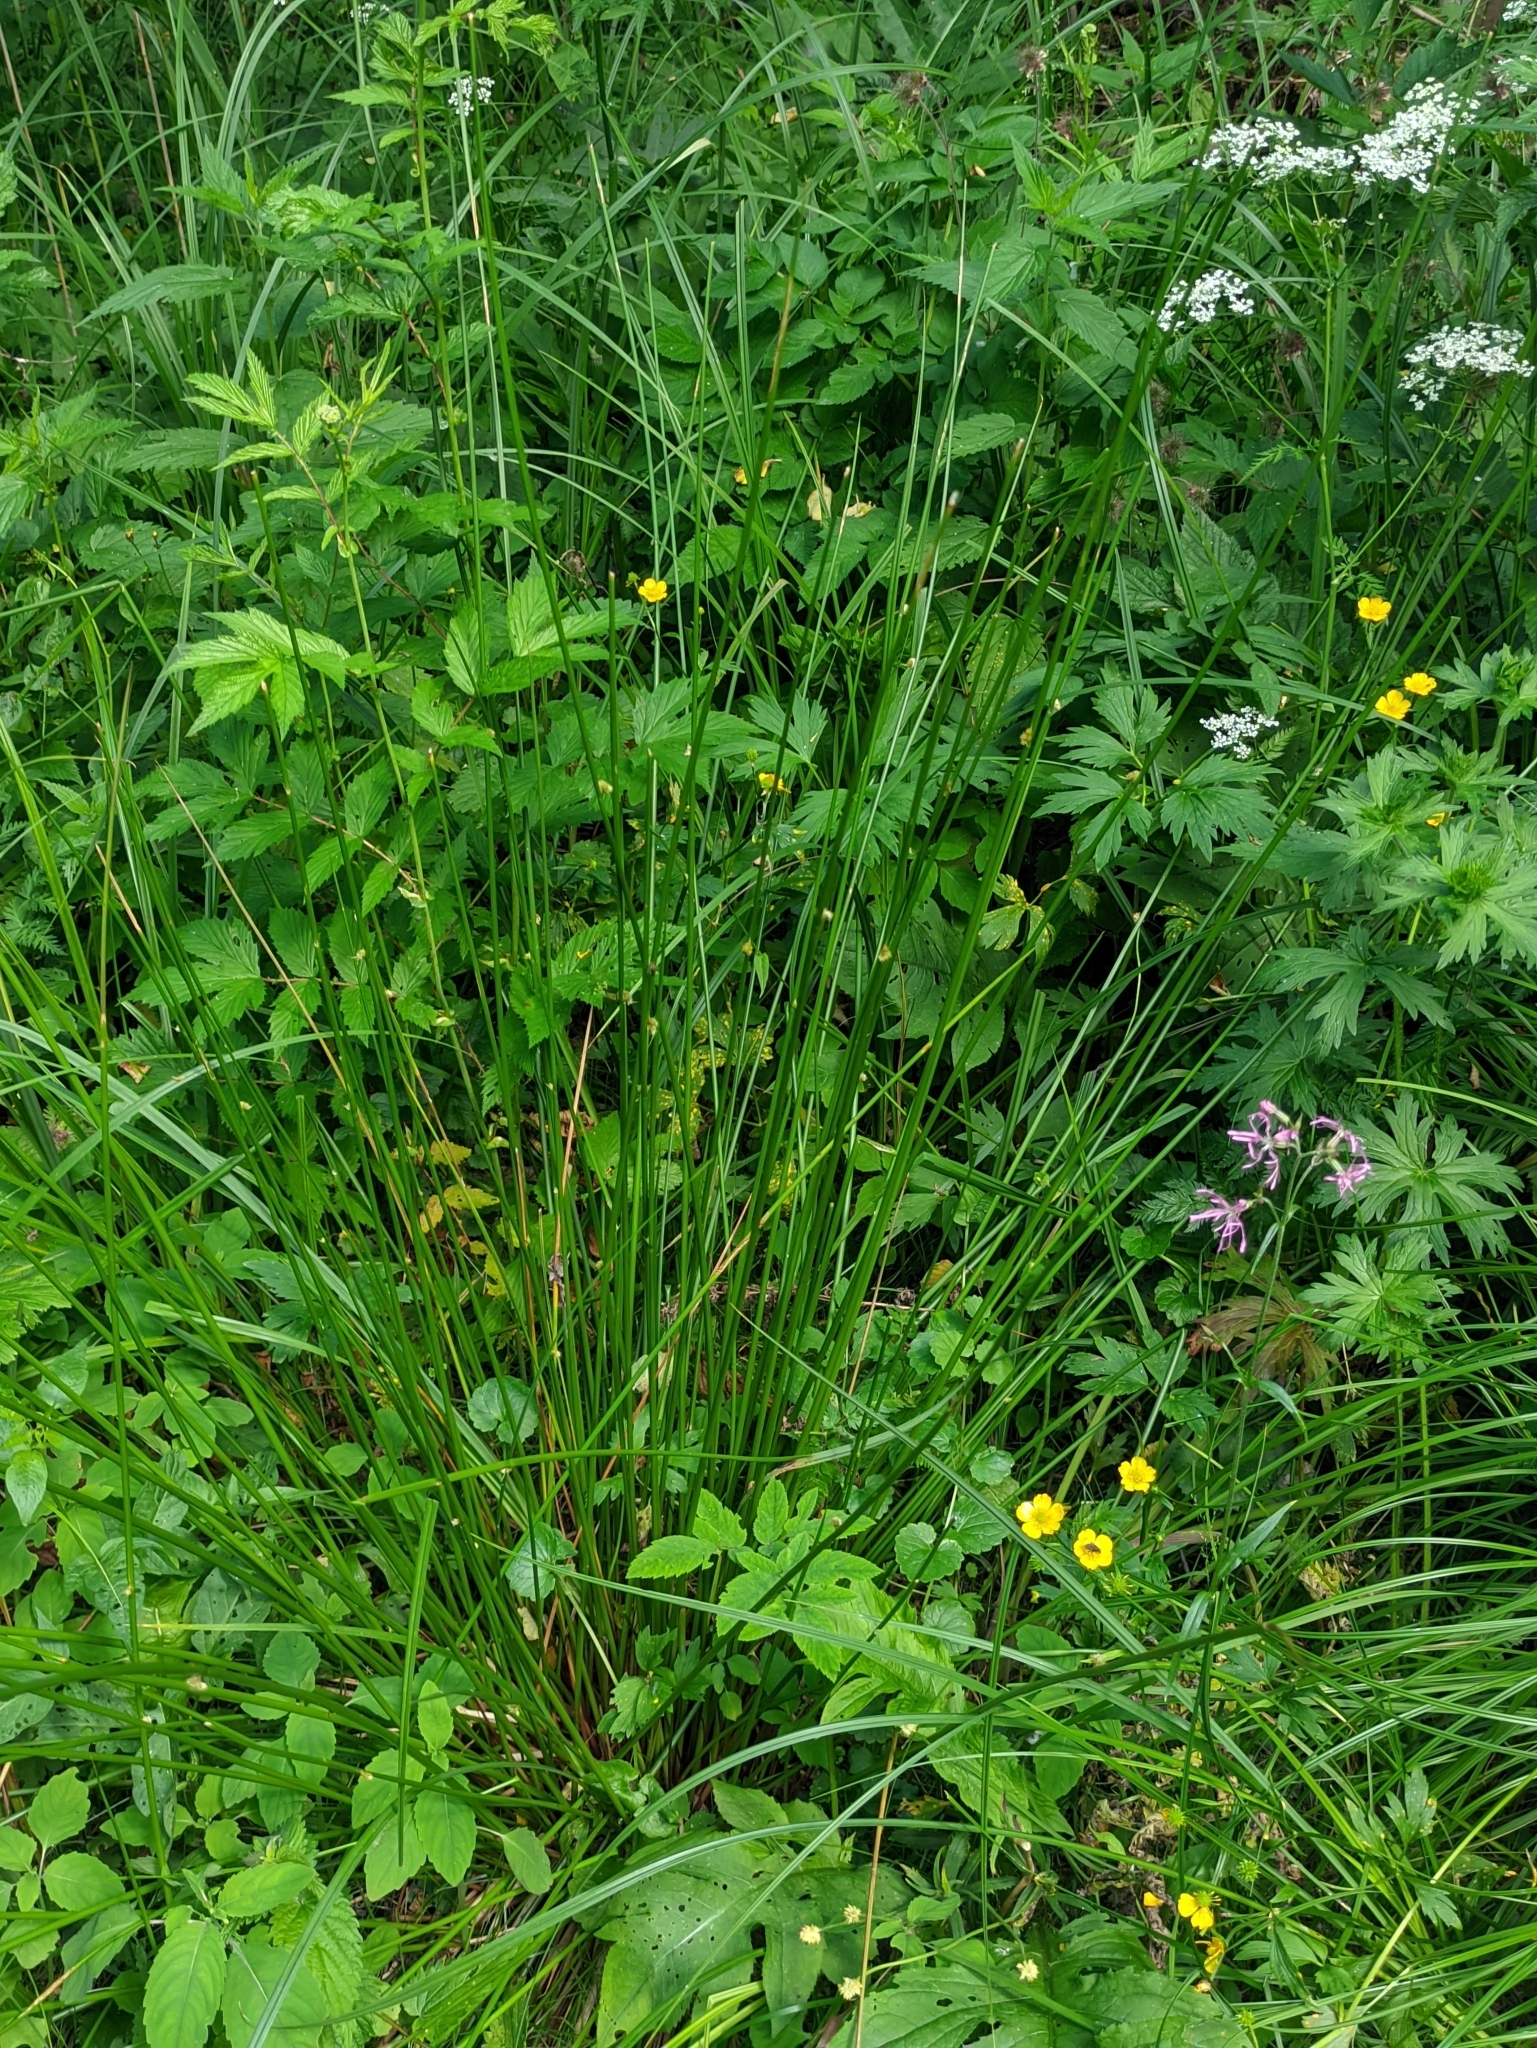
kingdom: Plantae
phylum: Tracheophyta
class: Liliopsida
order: Poales
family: Juncaceae
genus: Juncus
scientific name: Juncus effusus
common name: Soft rush
